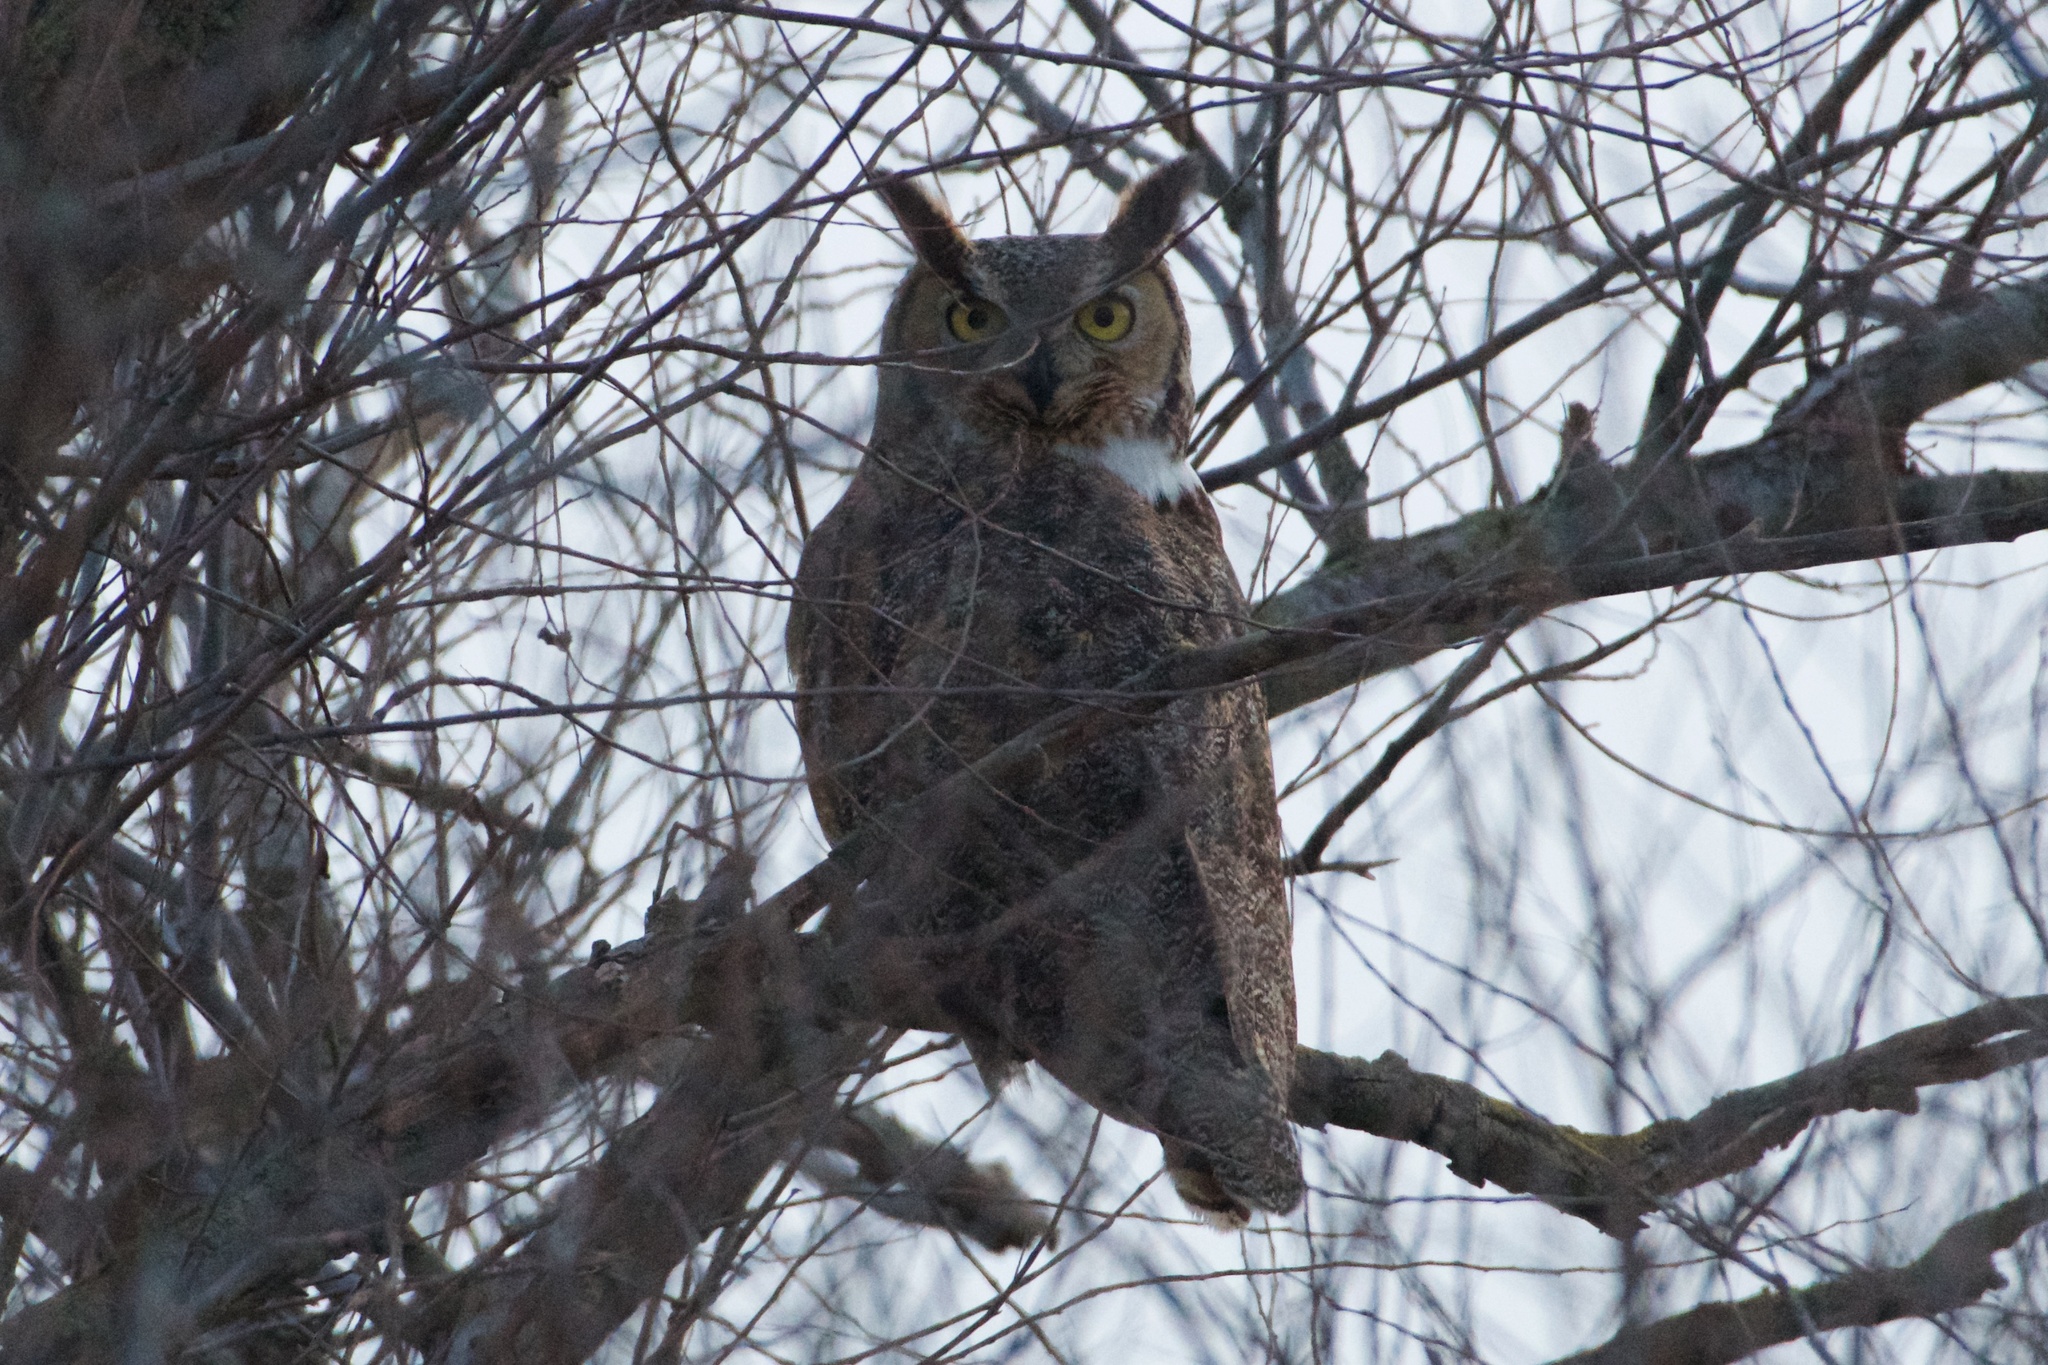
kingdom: Animalia
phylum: Chordata
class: Aves
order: Strigiformes
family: Strigidae
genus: Bubo
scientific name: Bubo virginianus
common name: Great horned owl
